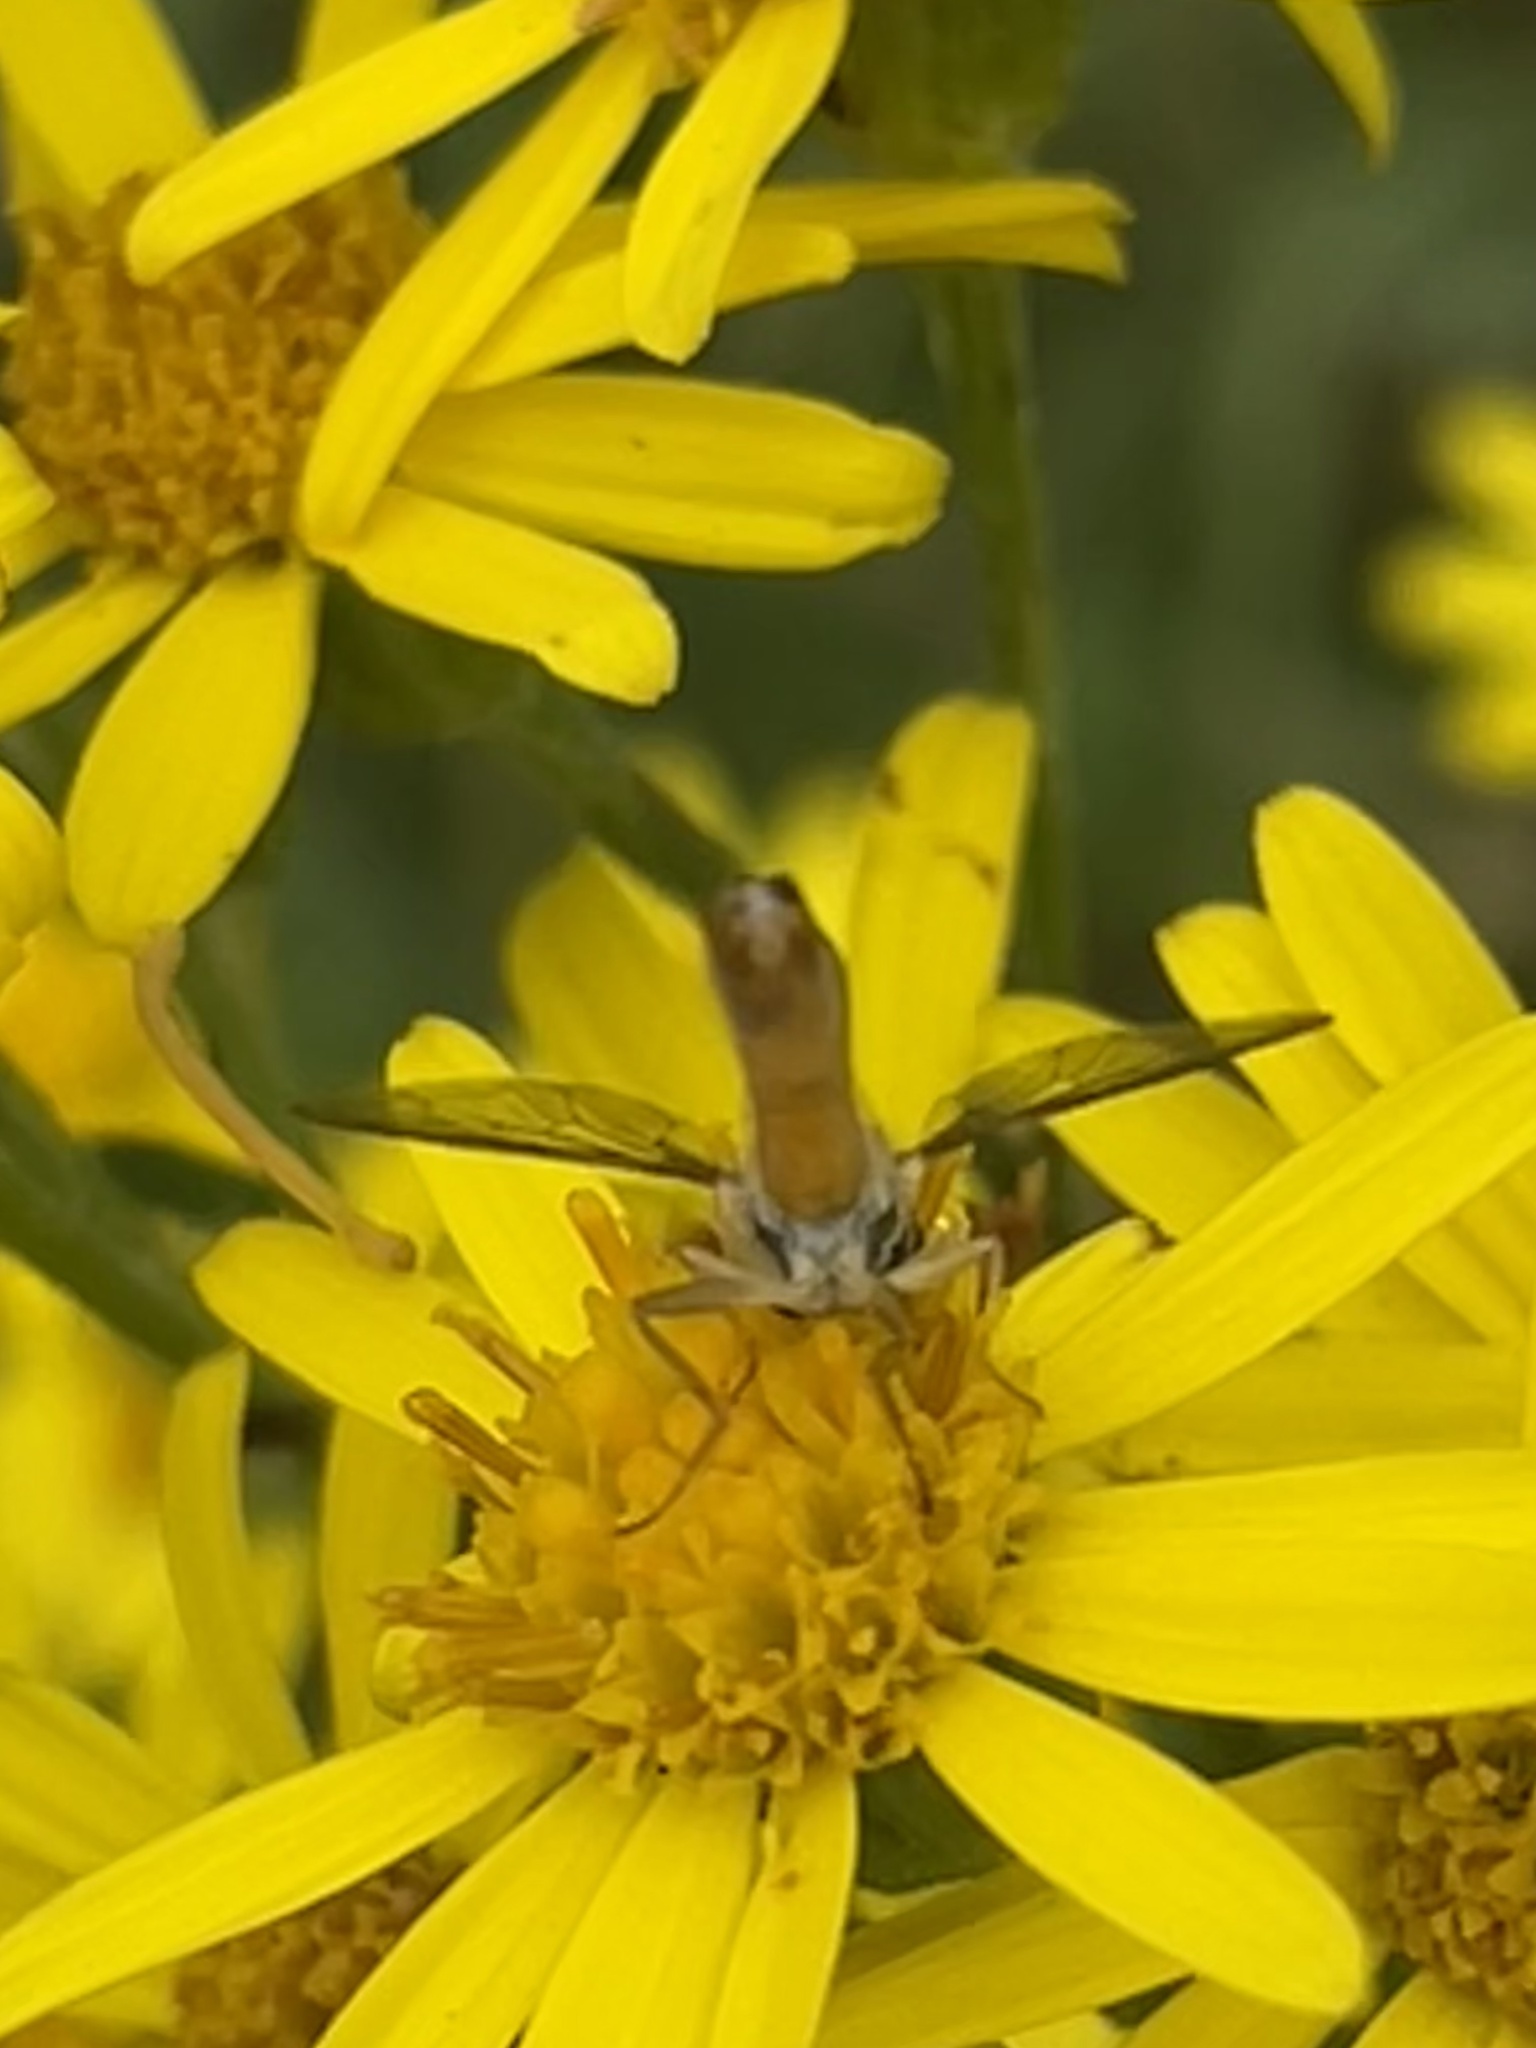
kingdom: Animalia
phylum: Arthropoda
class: Insecta
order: Diptera
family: Syrphidae
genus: Sphaerophoria
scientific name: Sphaerophoria scripta
